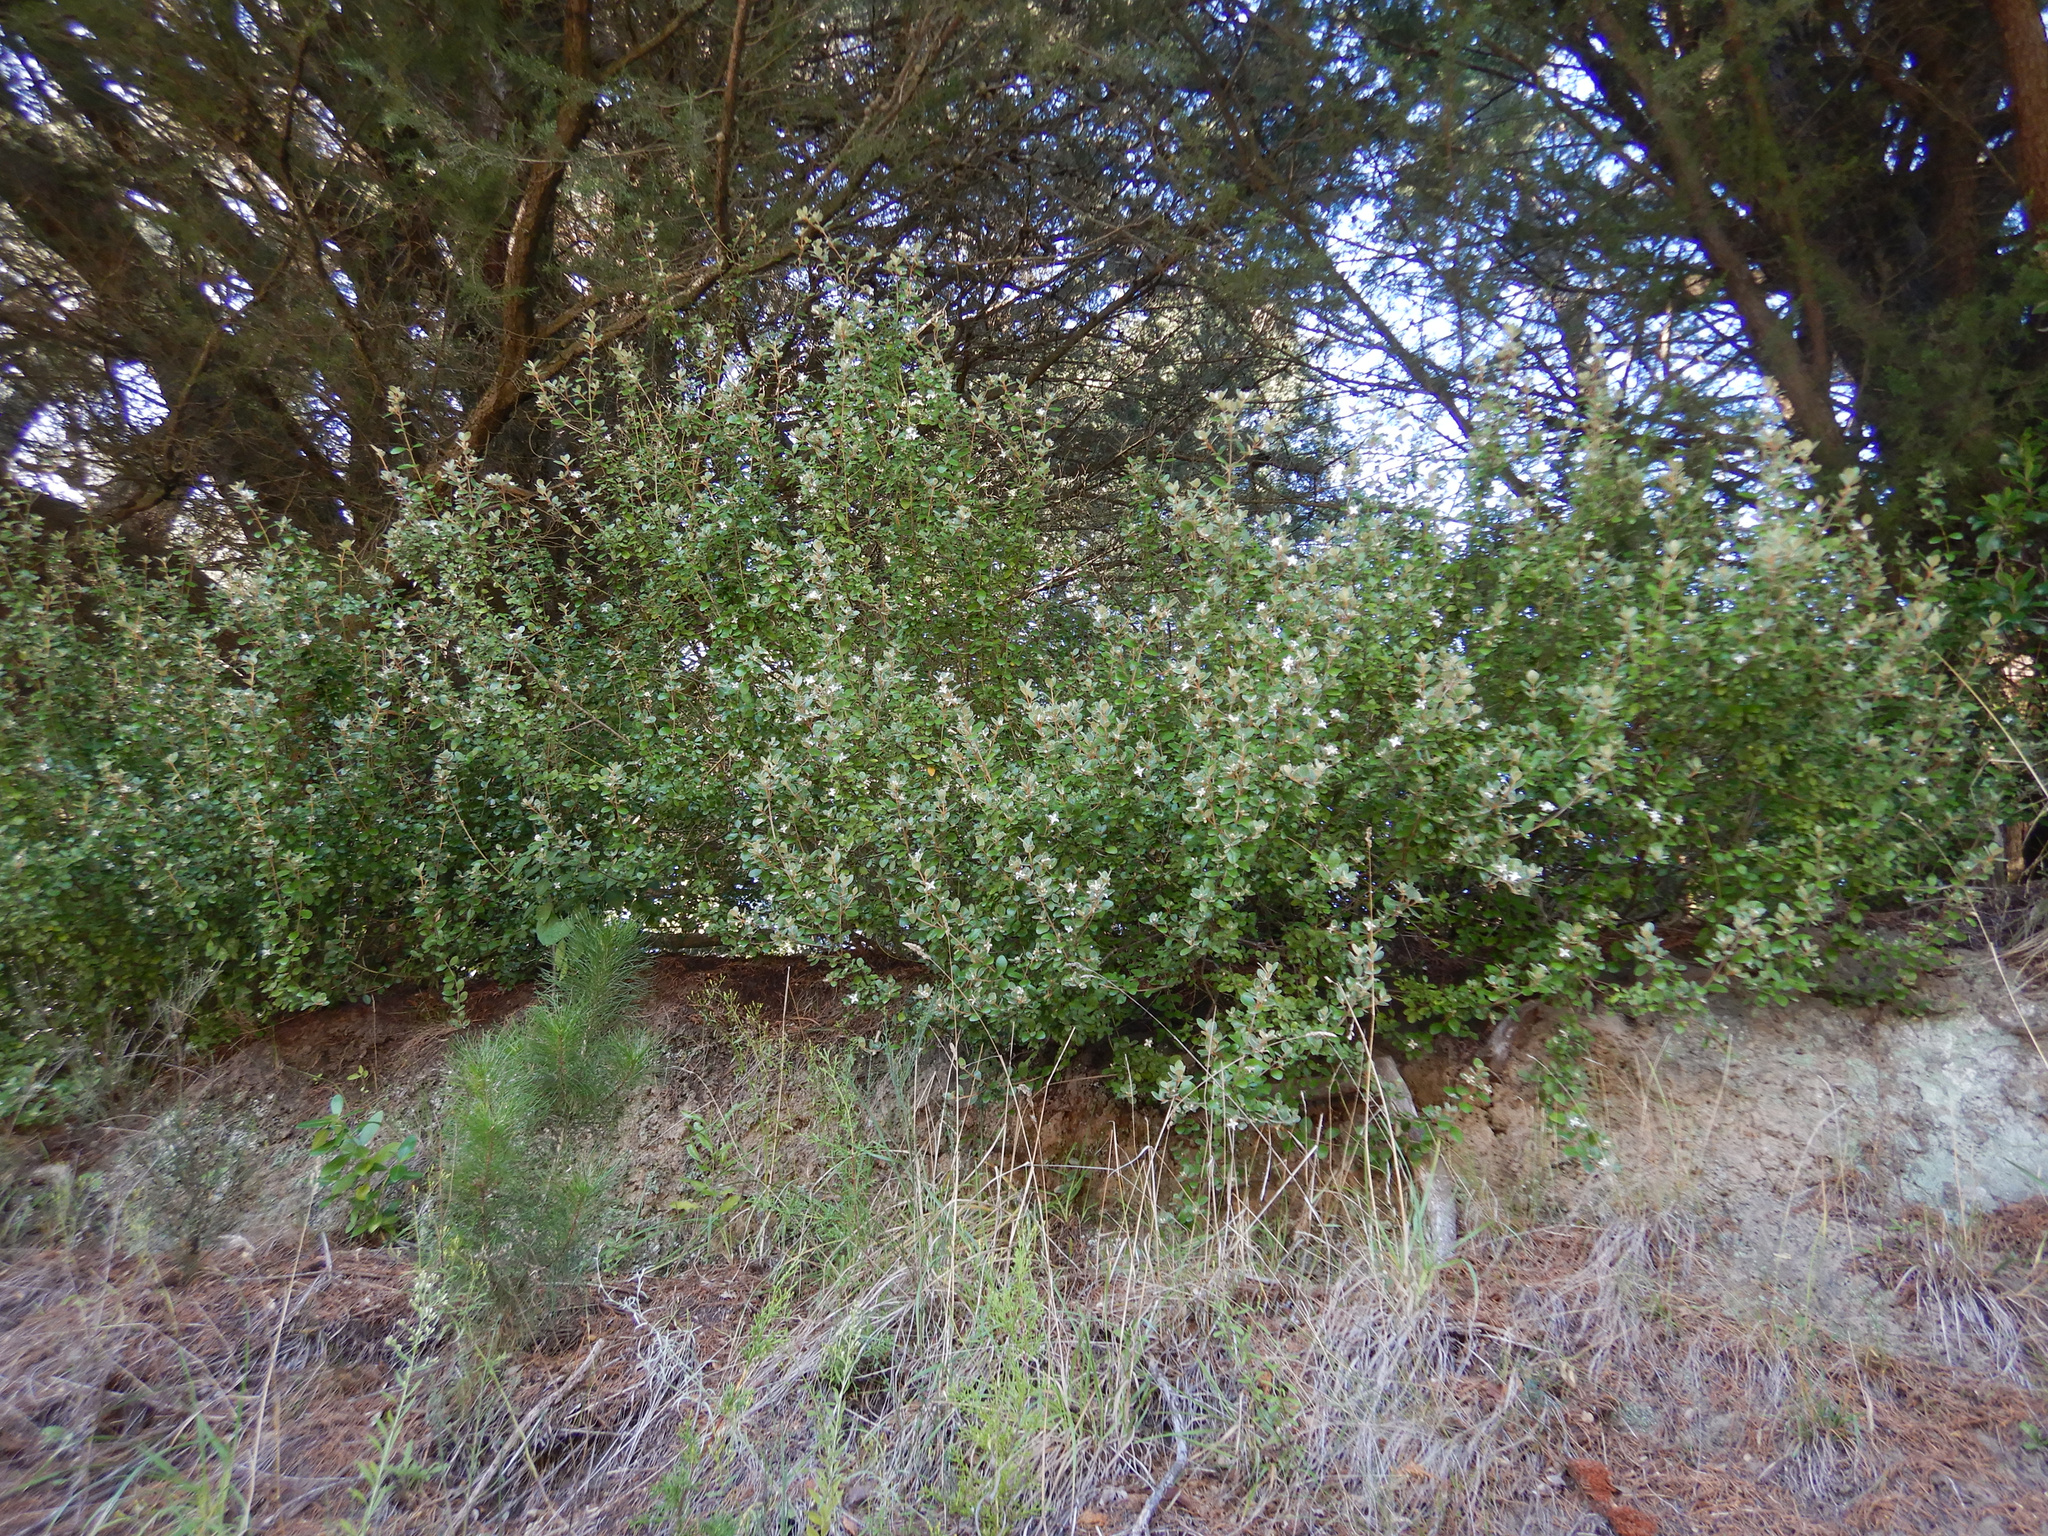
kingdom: Plantae
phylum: Tracheophyta
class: Pinopsida
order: Pinales
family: Pinaceae
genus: Pinus
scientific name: Pinus radiata
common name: Monterey pine
